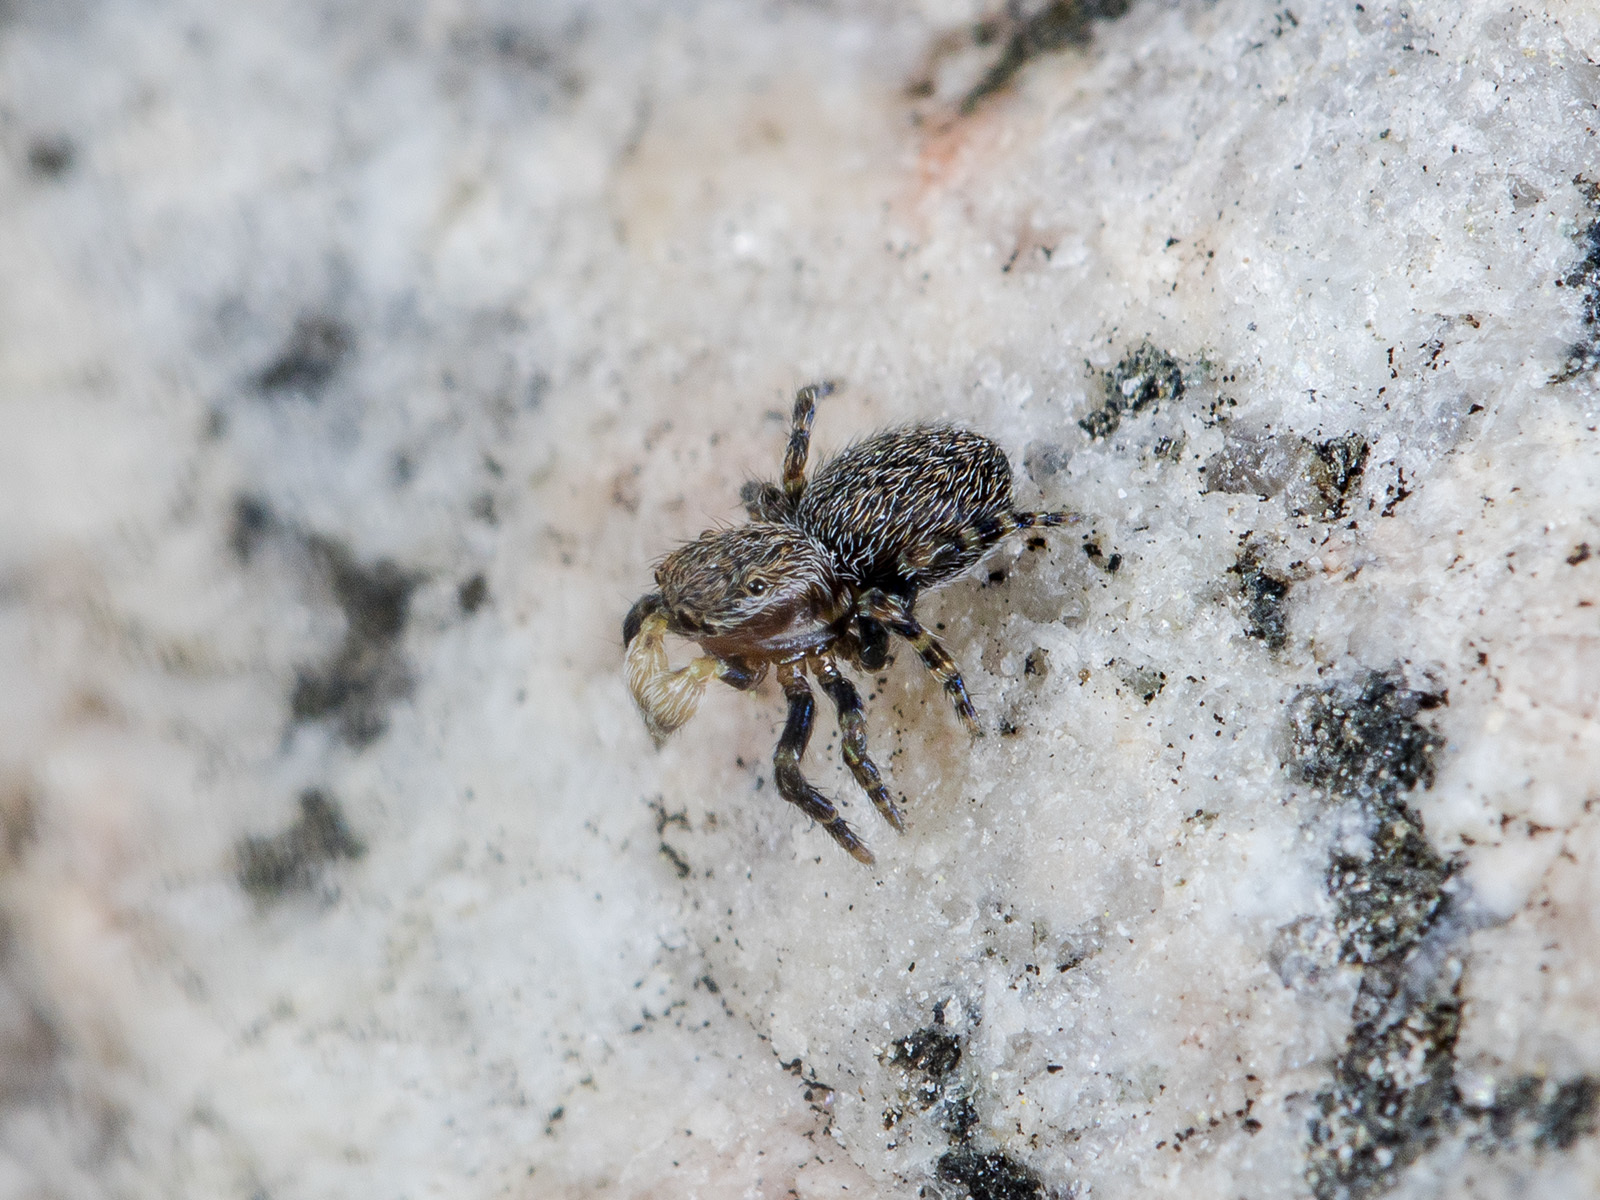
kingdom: Animalia
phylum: Arthropoda
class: Arachnida
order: Araneae
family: Salticidae
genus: Talavera
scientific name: Talavera petrensis
